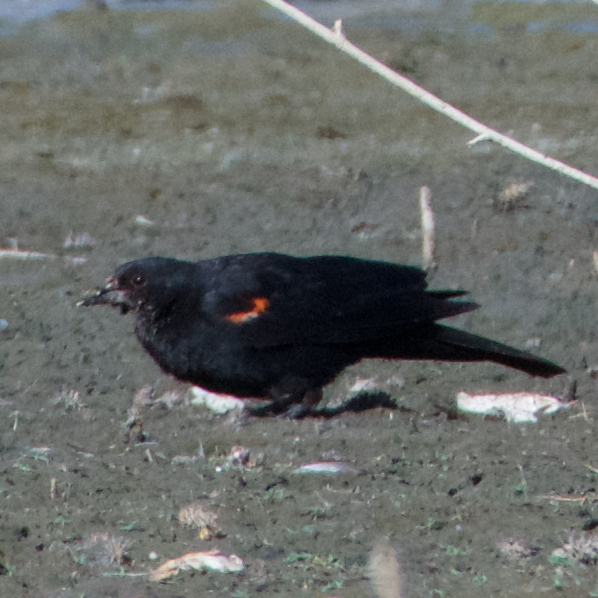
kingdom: Animalia
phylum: Chordata
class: Aves
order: Passeriformes
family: Icteridae
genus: Agelaius
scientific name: Agelaius phoeniceus
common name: Red-winged blackbird
